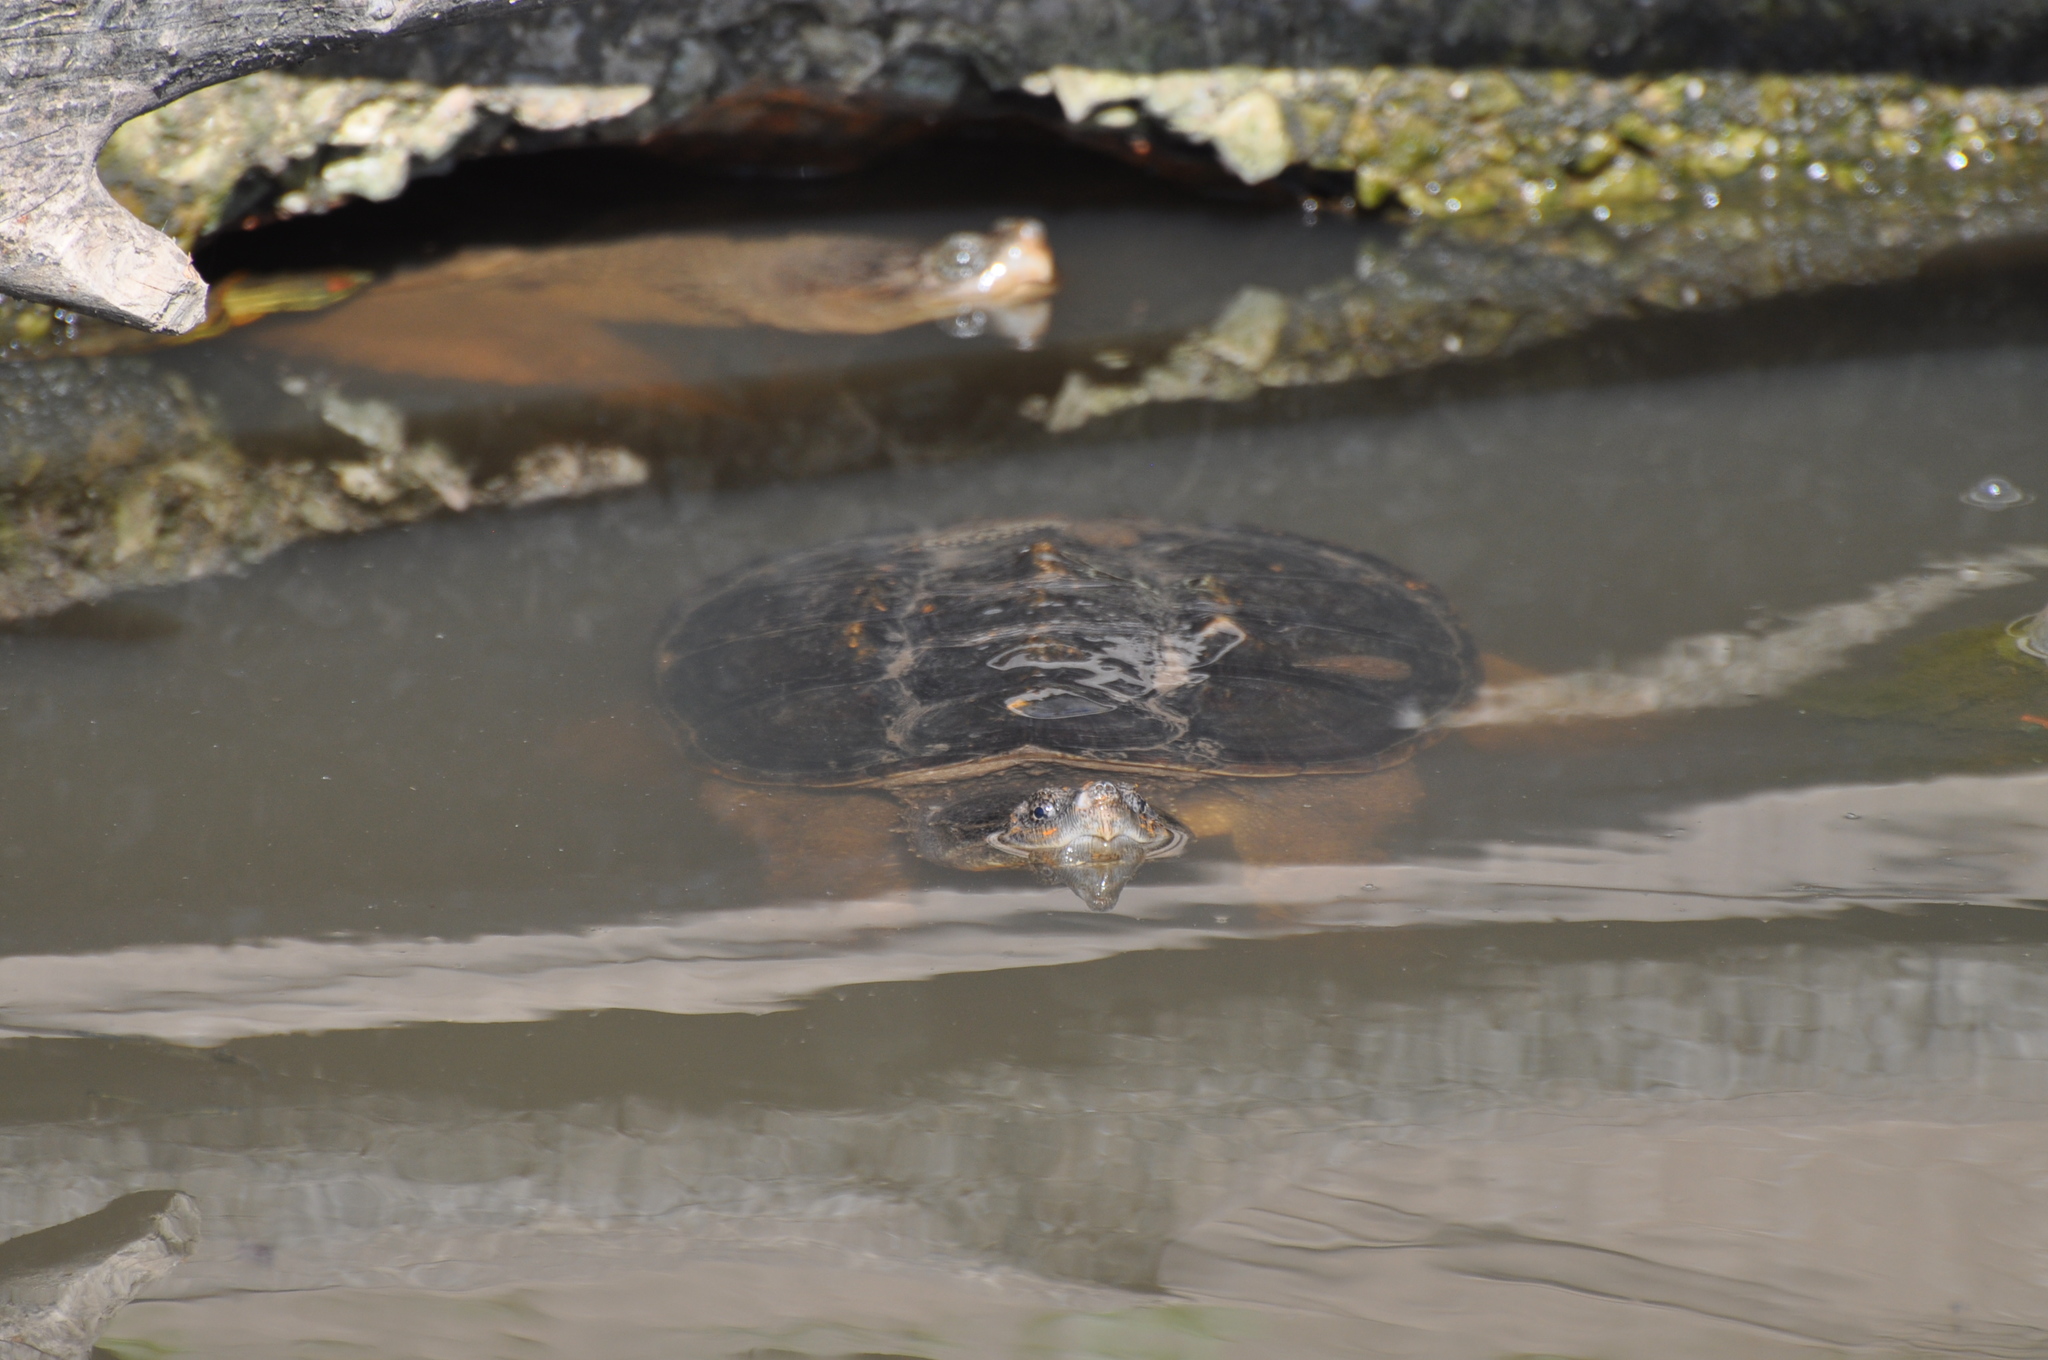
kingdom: Animalia
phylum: Chordata
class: Testudines
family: Chelydridae
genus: Chelydra
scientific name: Chelydra serpentina
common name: Common snapping turtle
